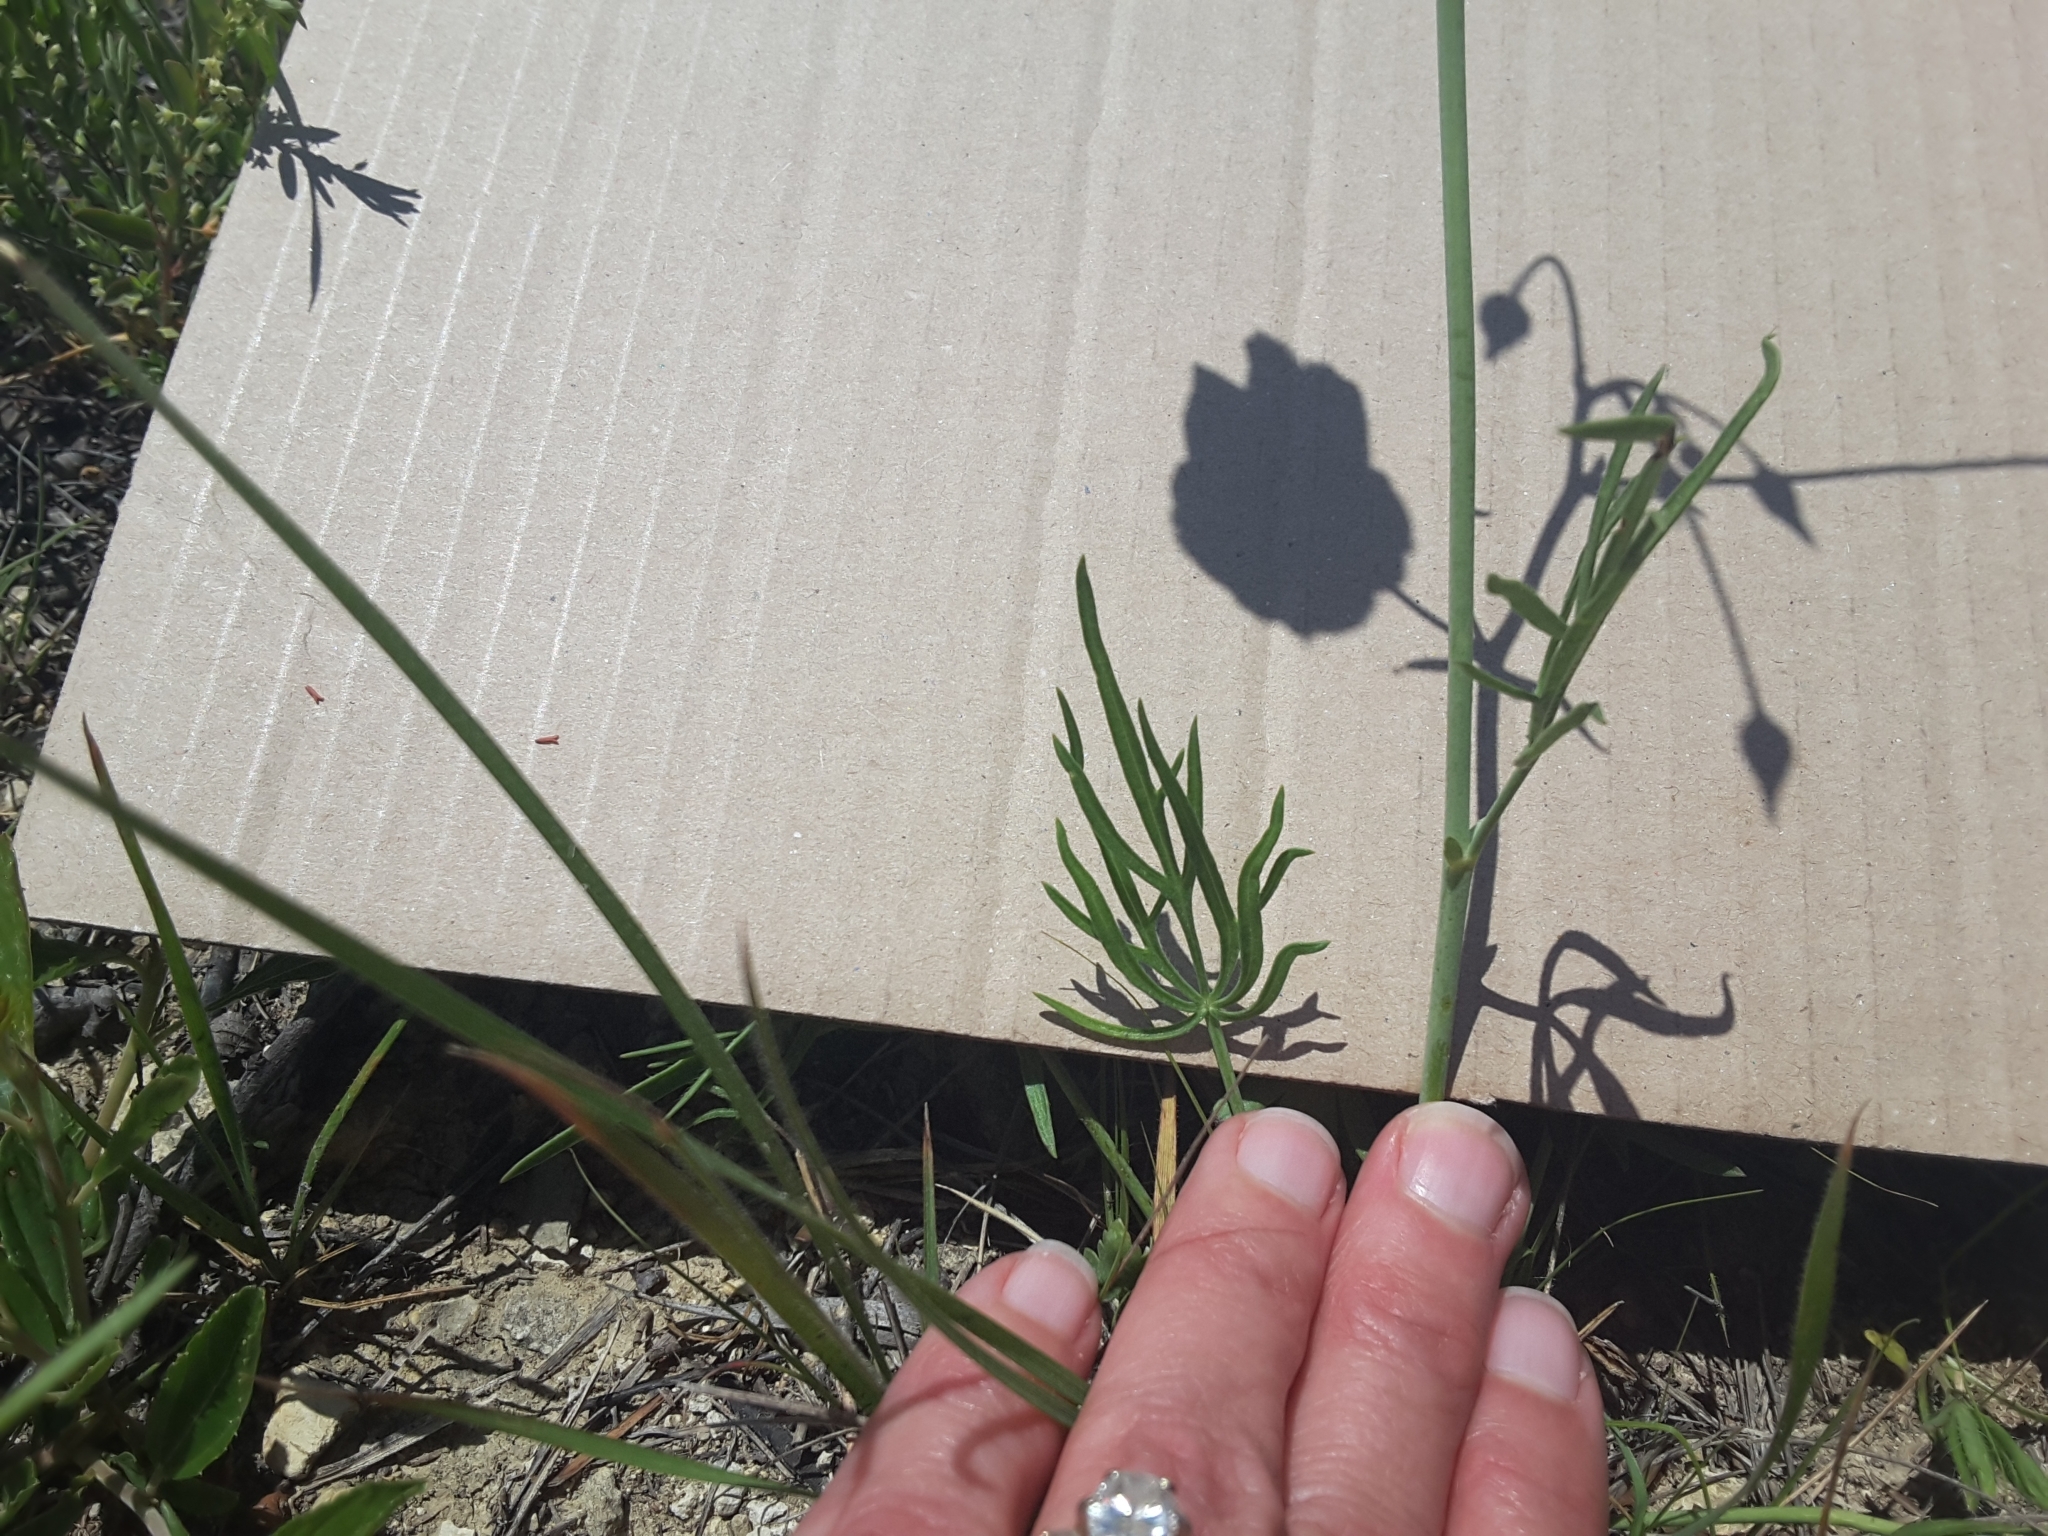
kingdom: Plantae
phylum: Tracheophyta
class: Magnoliopsida
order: Malvales
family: Malvaceae
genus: Callirhoe
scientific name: Callirhoe pedata
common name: Finger poppy-mallow
